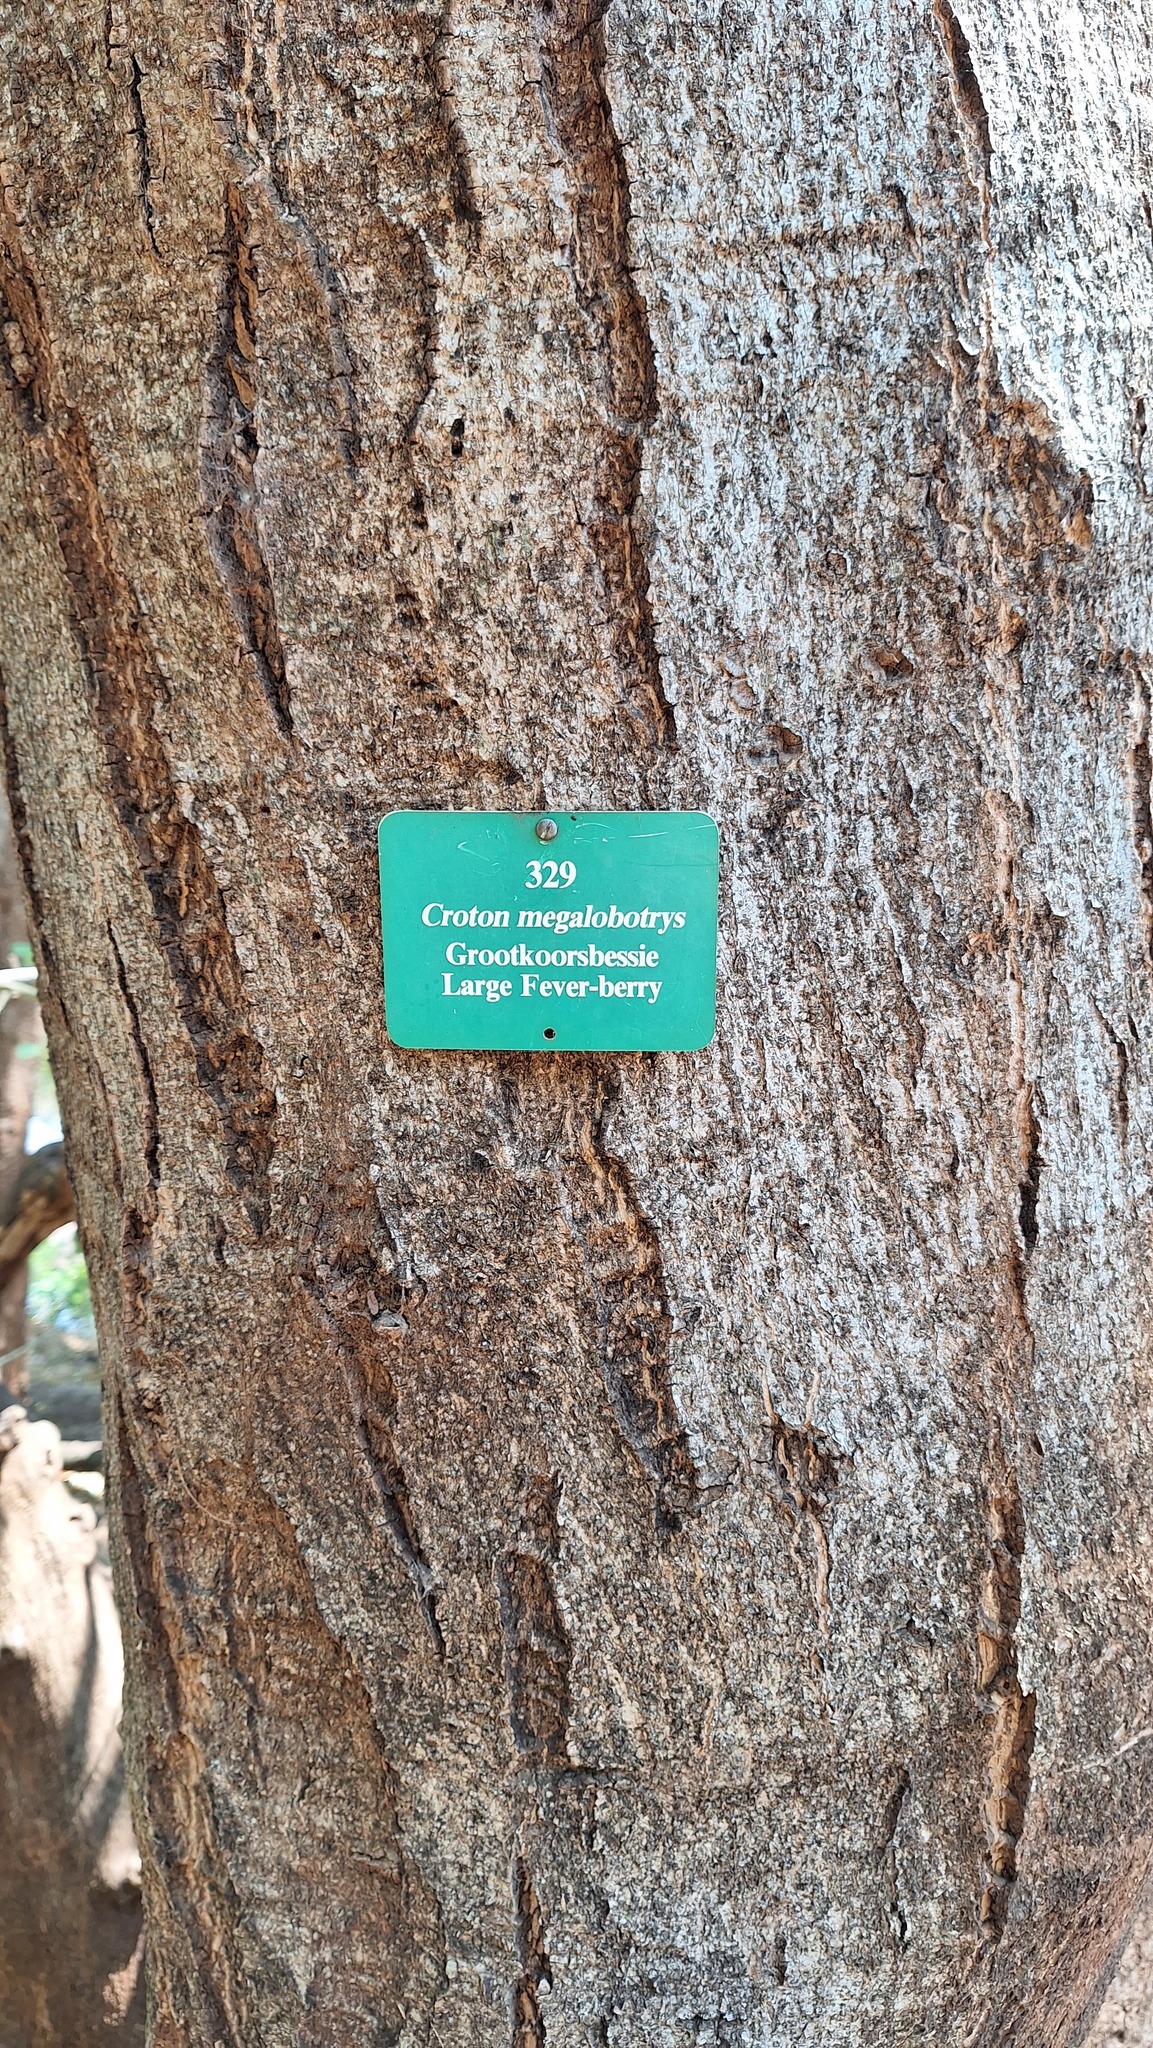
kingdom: Plantae
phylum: Tracheophyta
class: Magnoliopsida
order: Malpighiales
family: Euphorbiaceae
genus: Croton
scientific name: Croton megalobotrys
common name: Large fever berry
